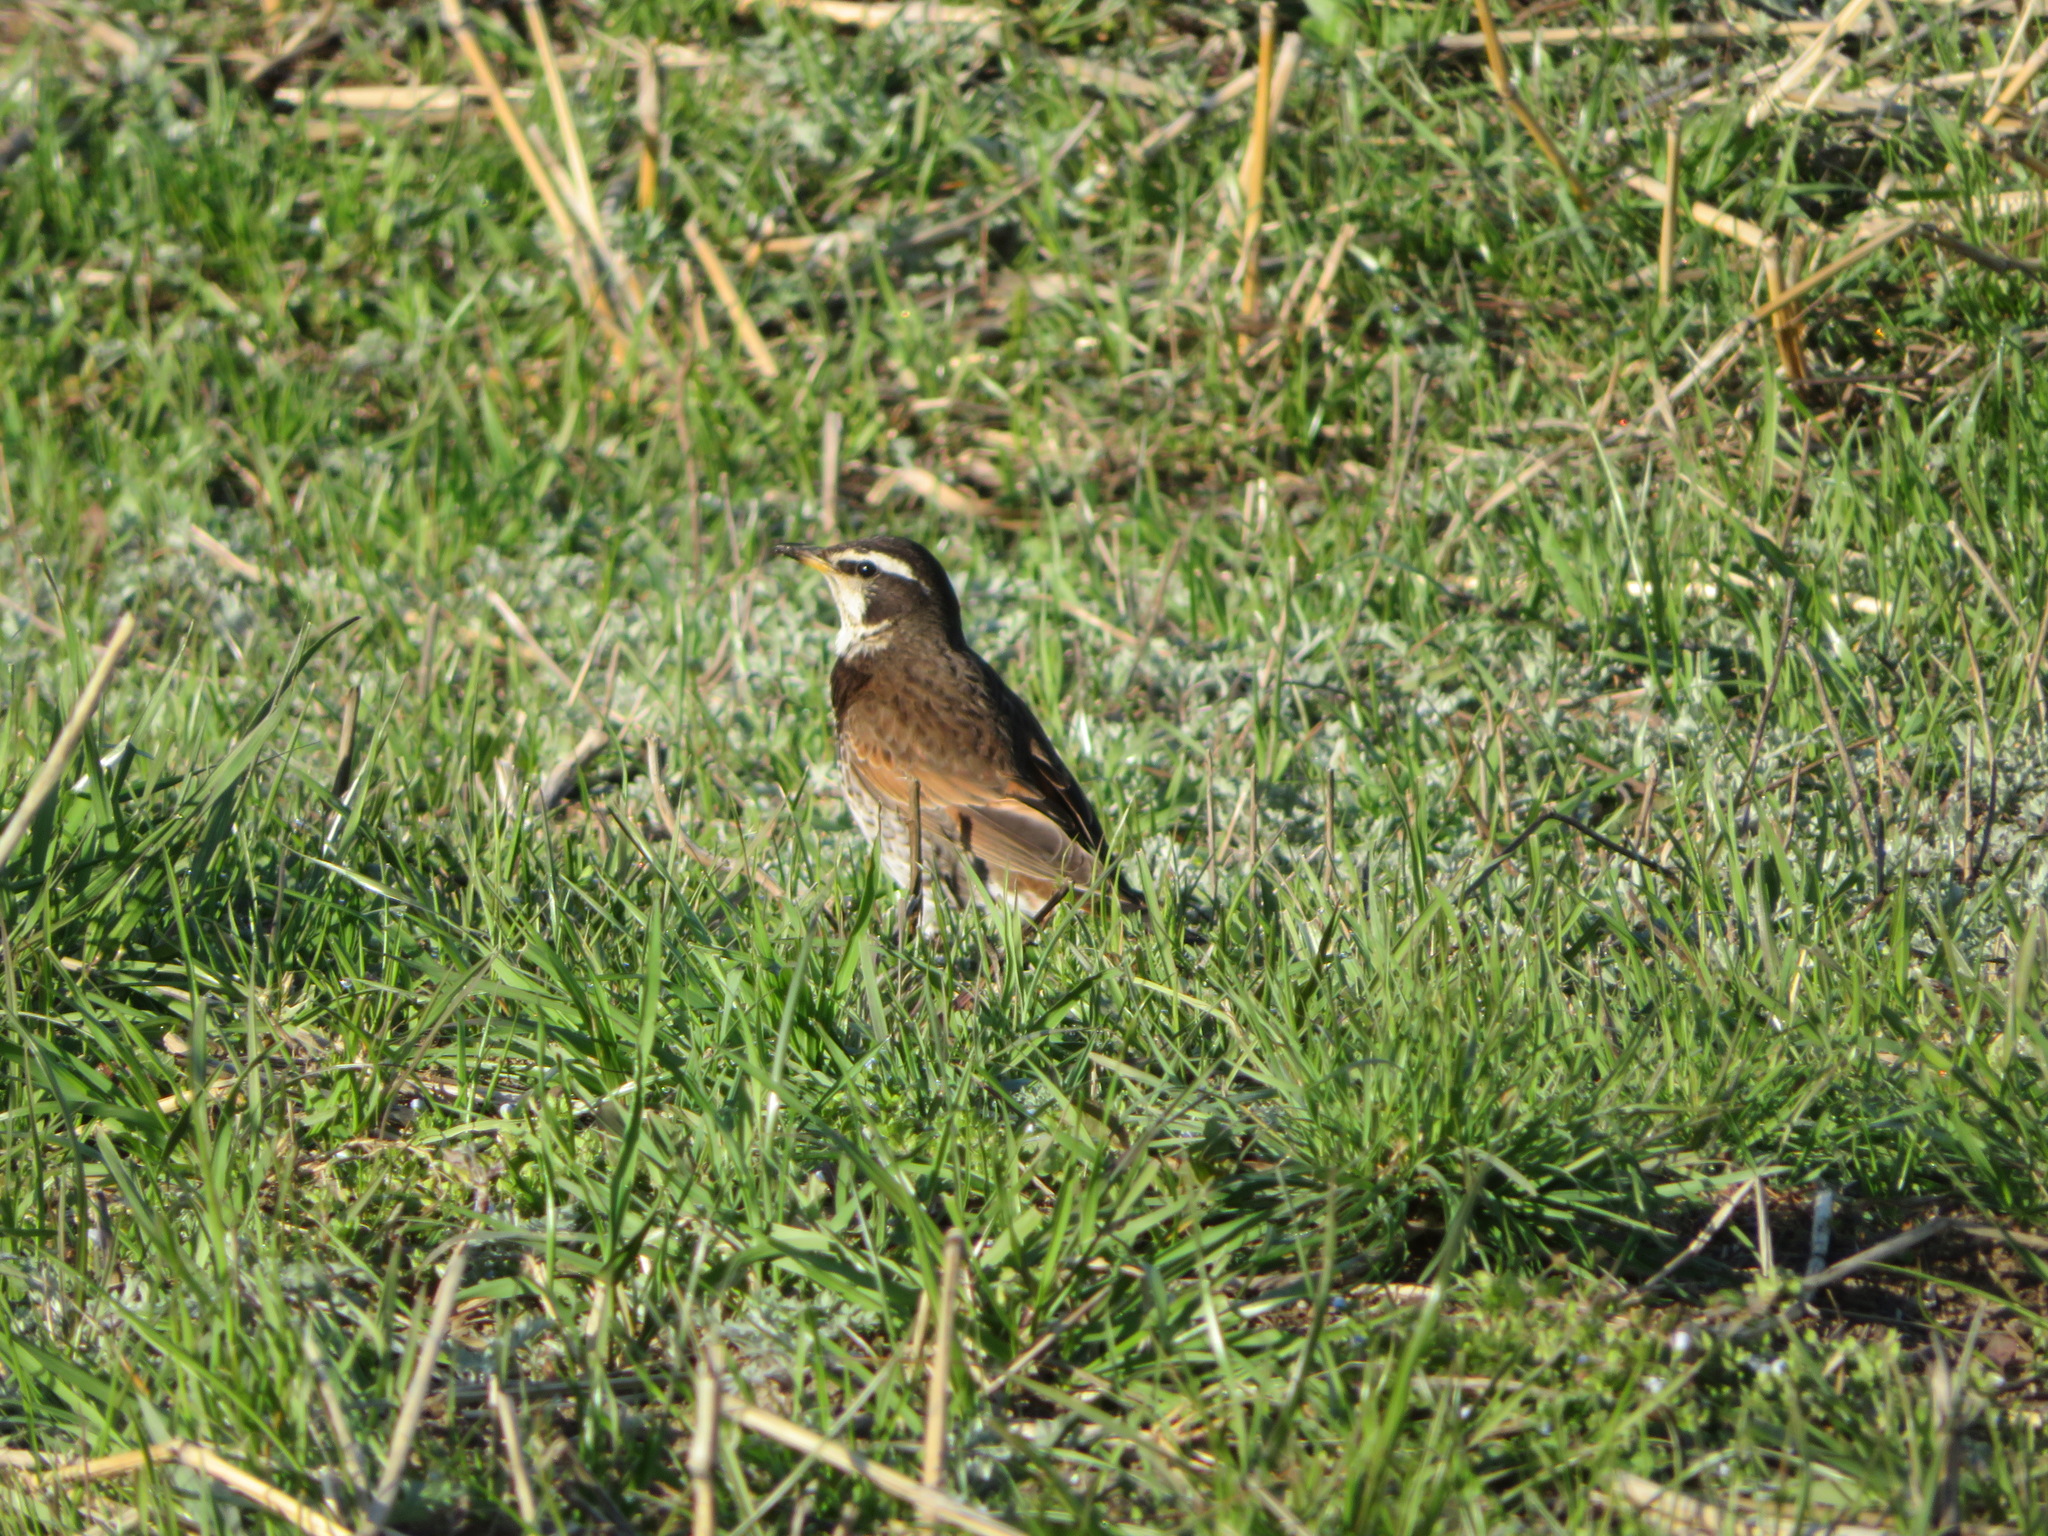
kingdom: Animalia
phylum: Chordata
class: Aves
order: Passeriformes
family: Turdidae
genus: Turdus
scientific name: Turdus eunomus
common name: Dusky thrush
